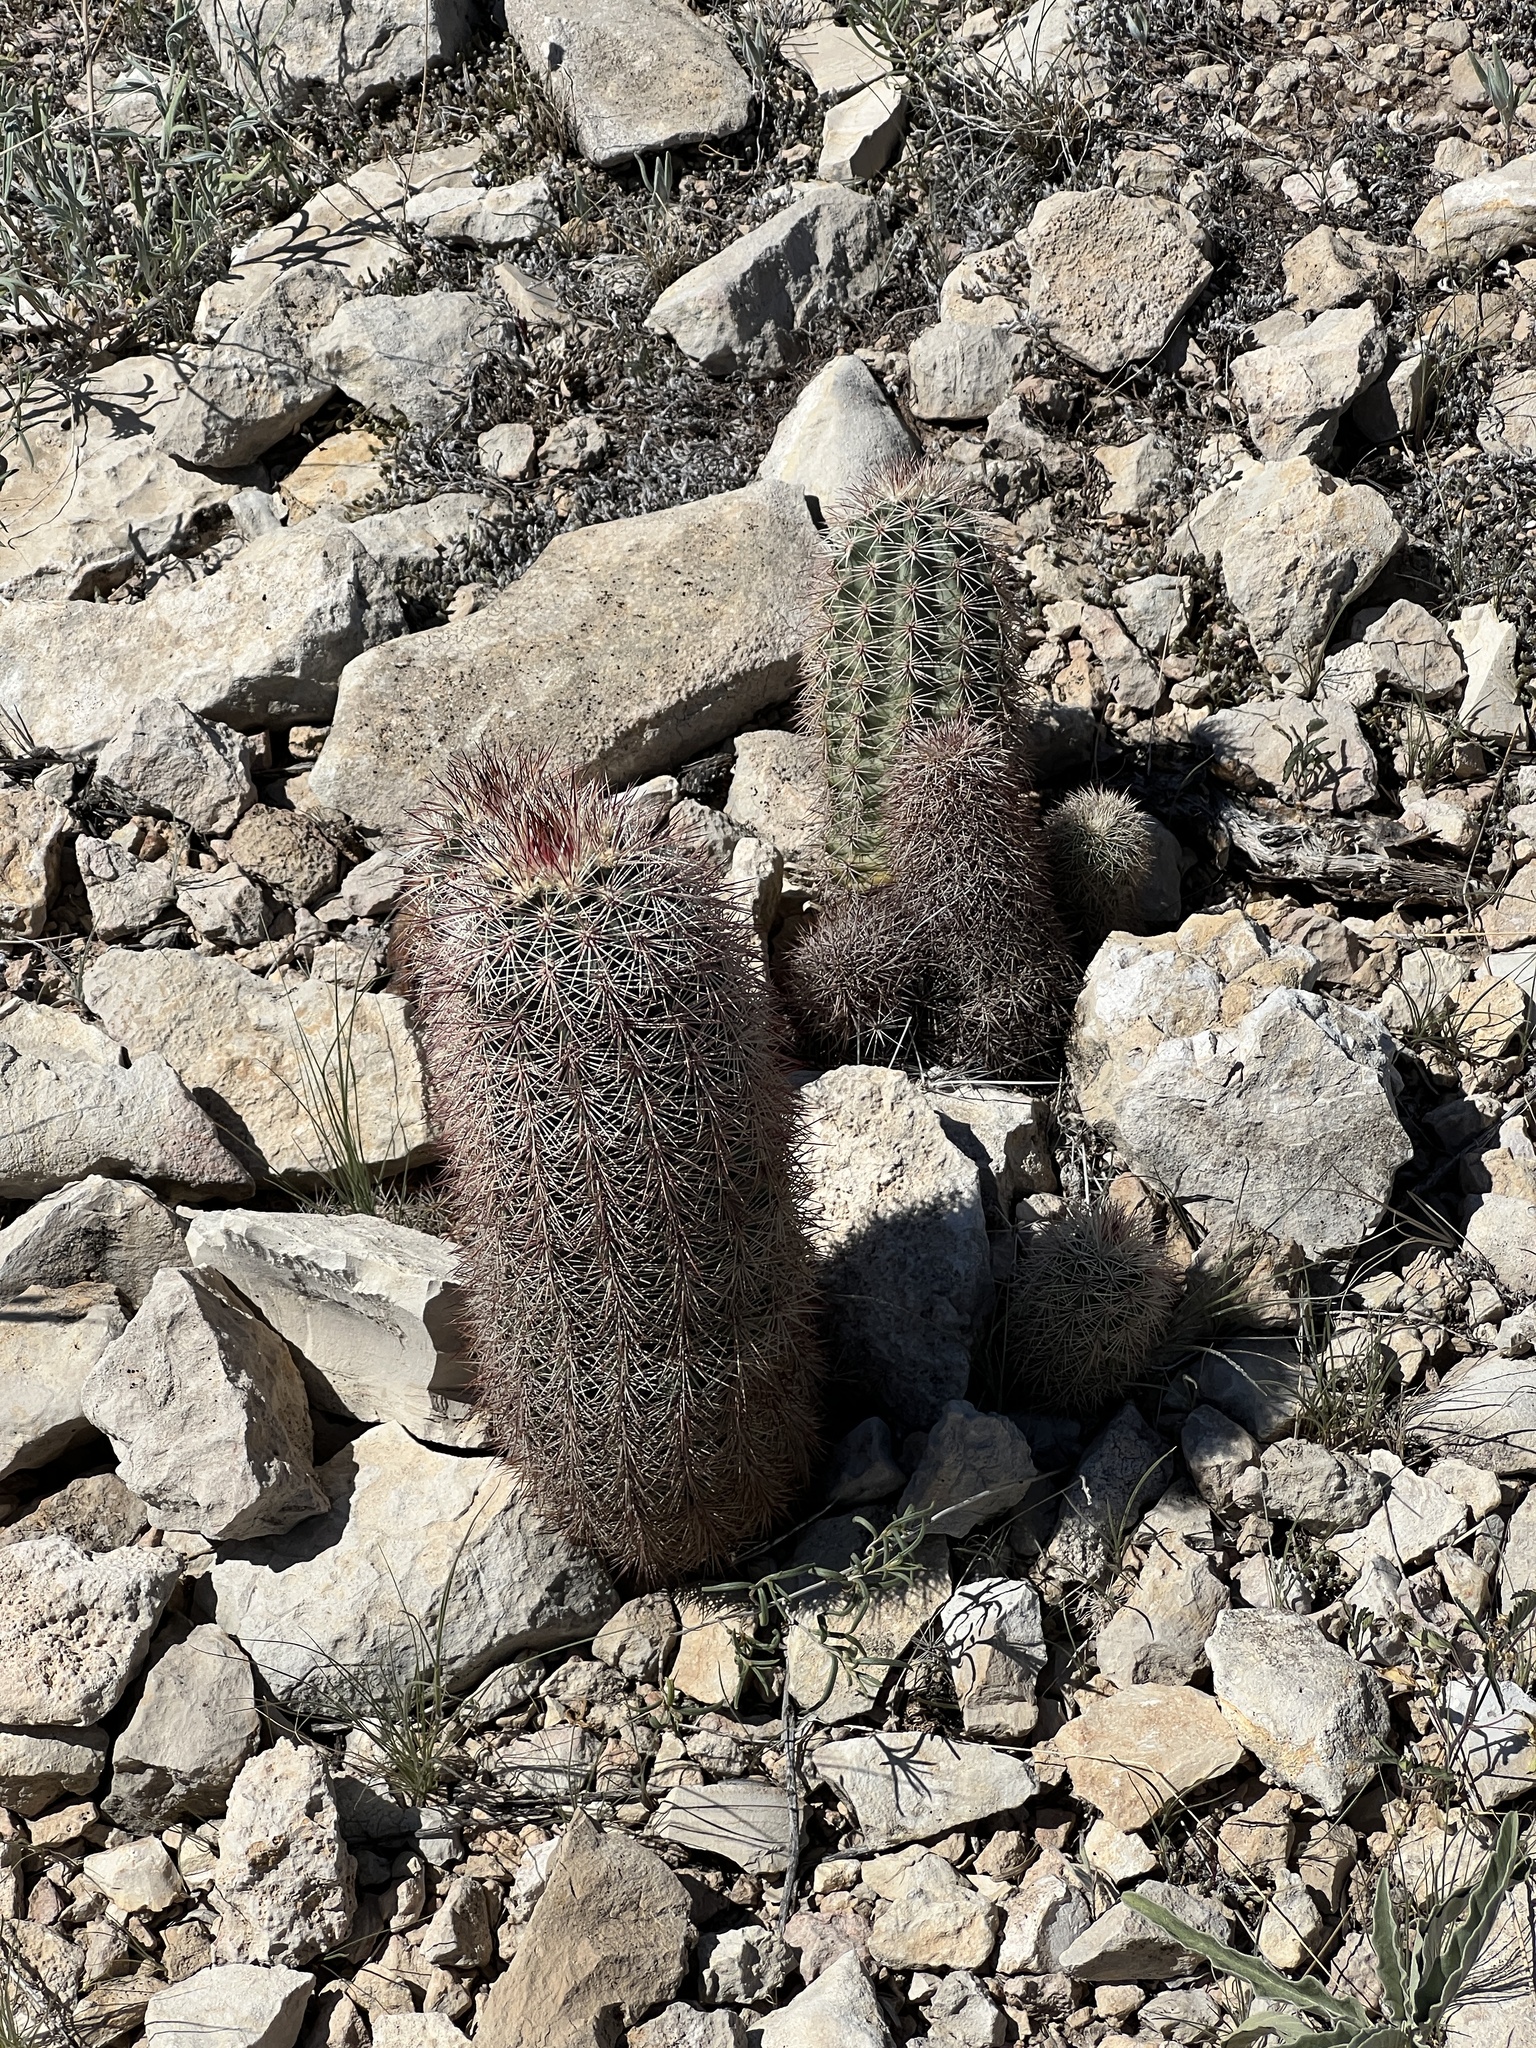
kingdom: Plantae
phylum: Tracheophyta
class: Magnoliopsida
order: Caryophyllales
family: Cactaceae
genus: Echinocereus
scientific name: Echinocereus dasyacanthus
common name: Spiny hedgehog cactus
